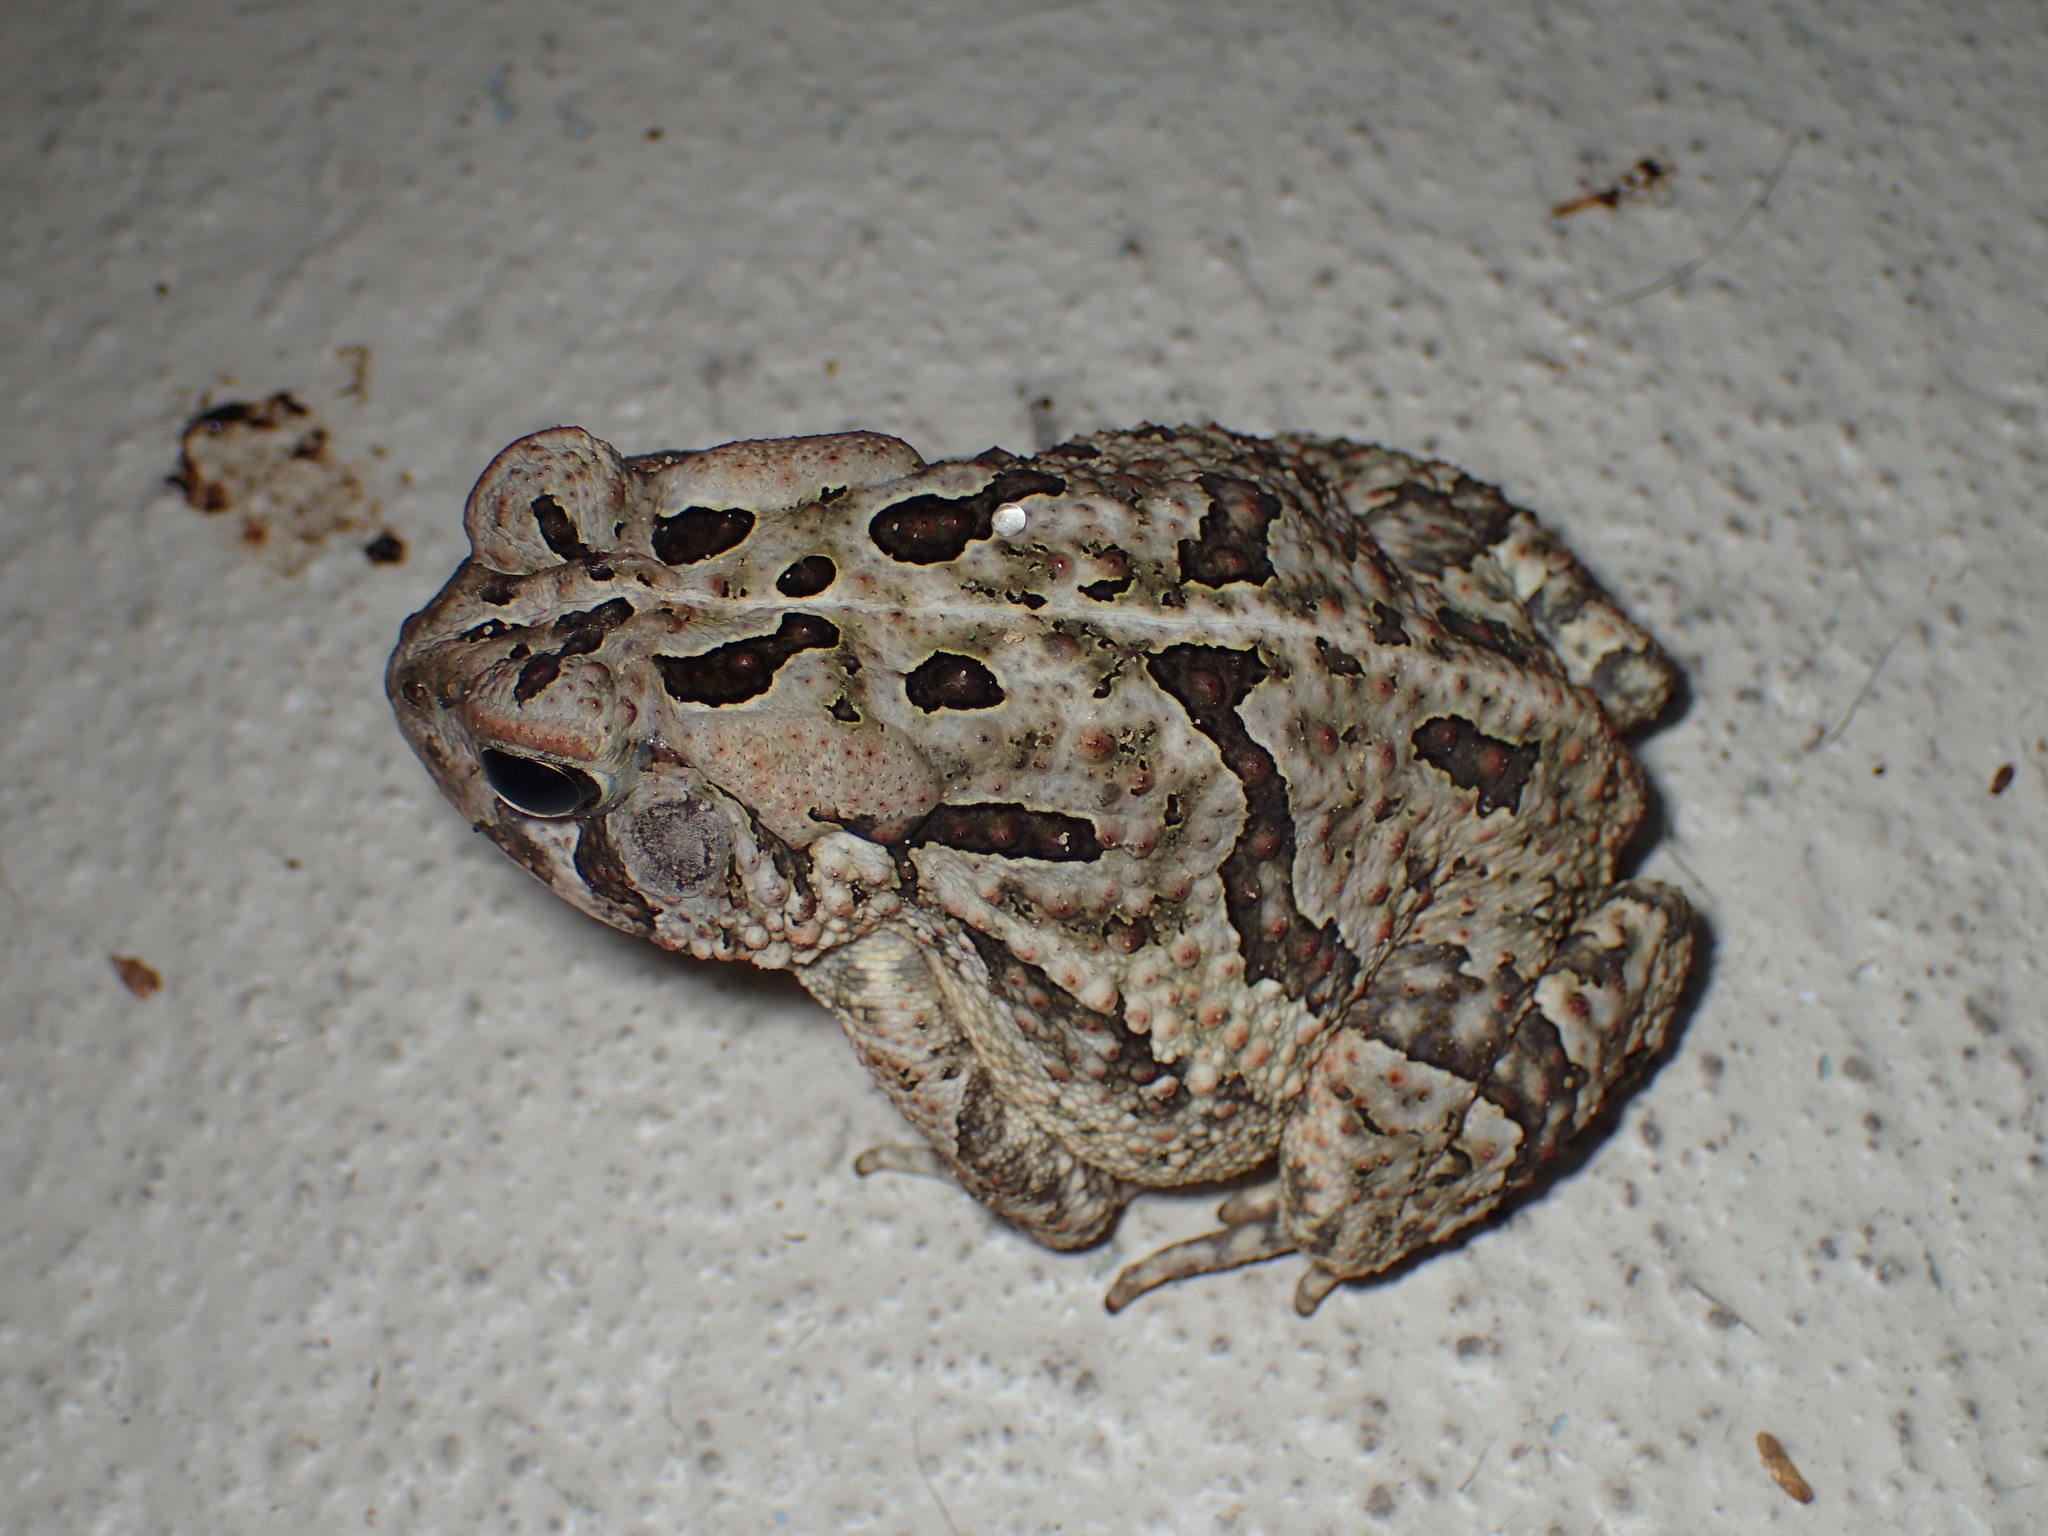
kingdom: Animalia
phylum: Chordata
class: Amphibia
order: Anura
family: Bufonidae
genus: Anaxyrus
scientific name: Anaxyrus fowleri
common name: Fowler's toad
